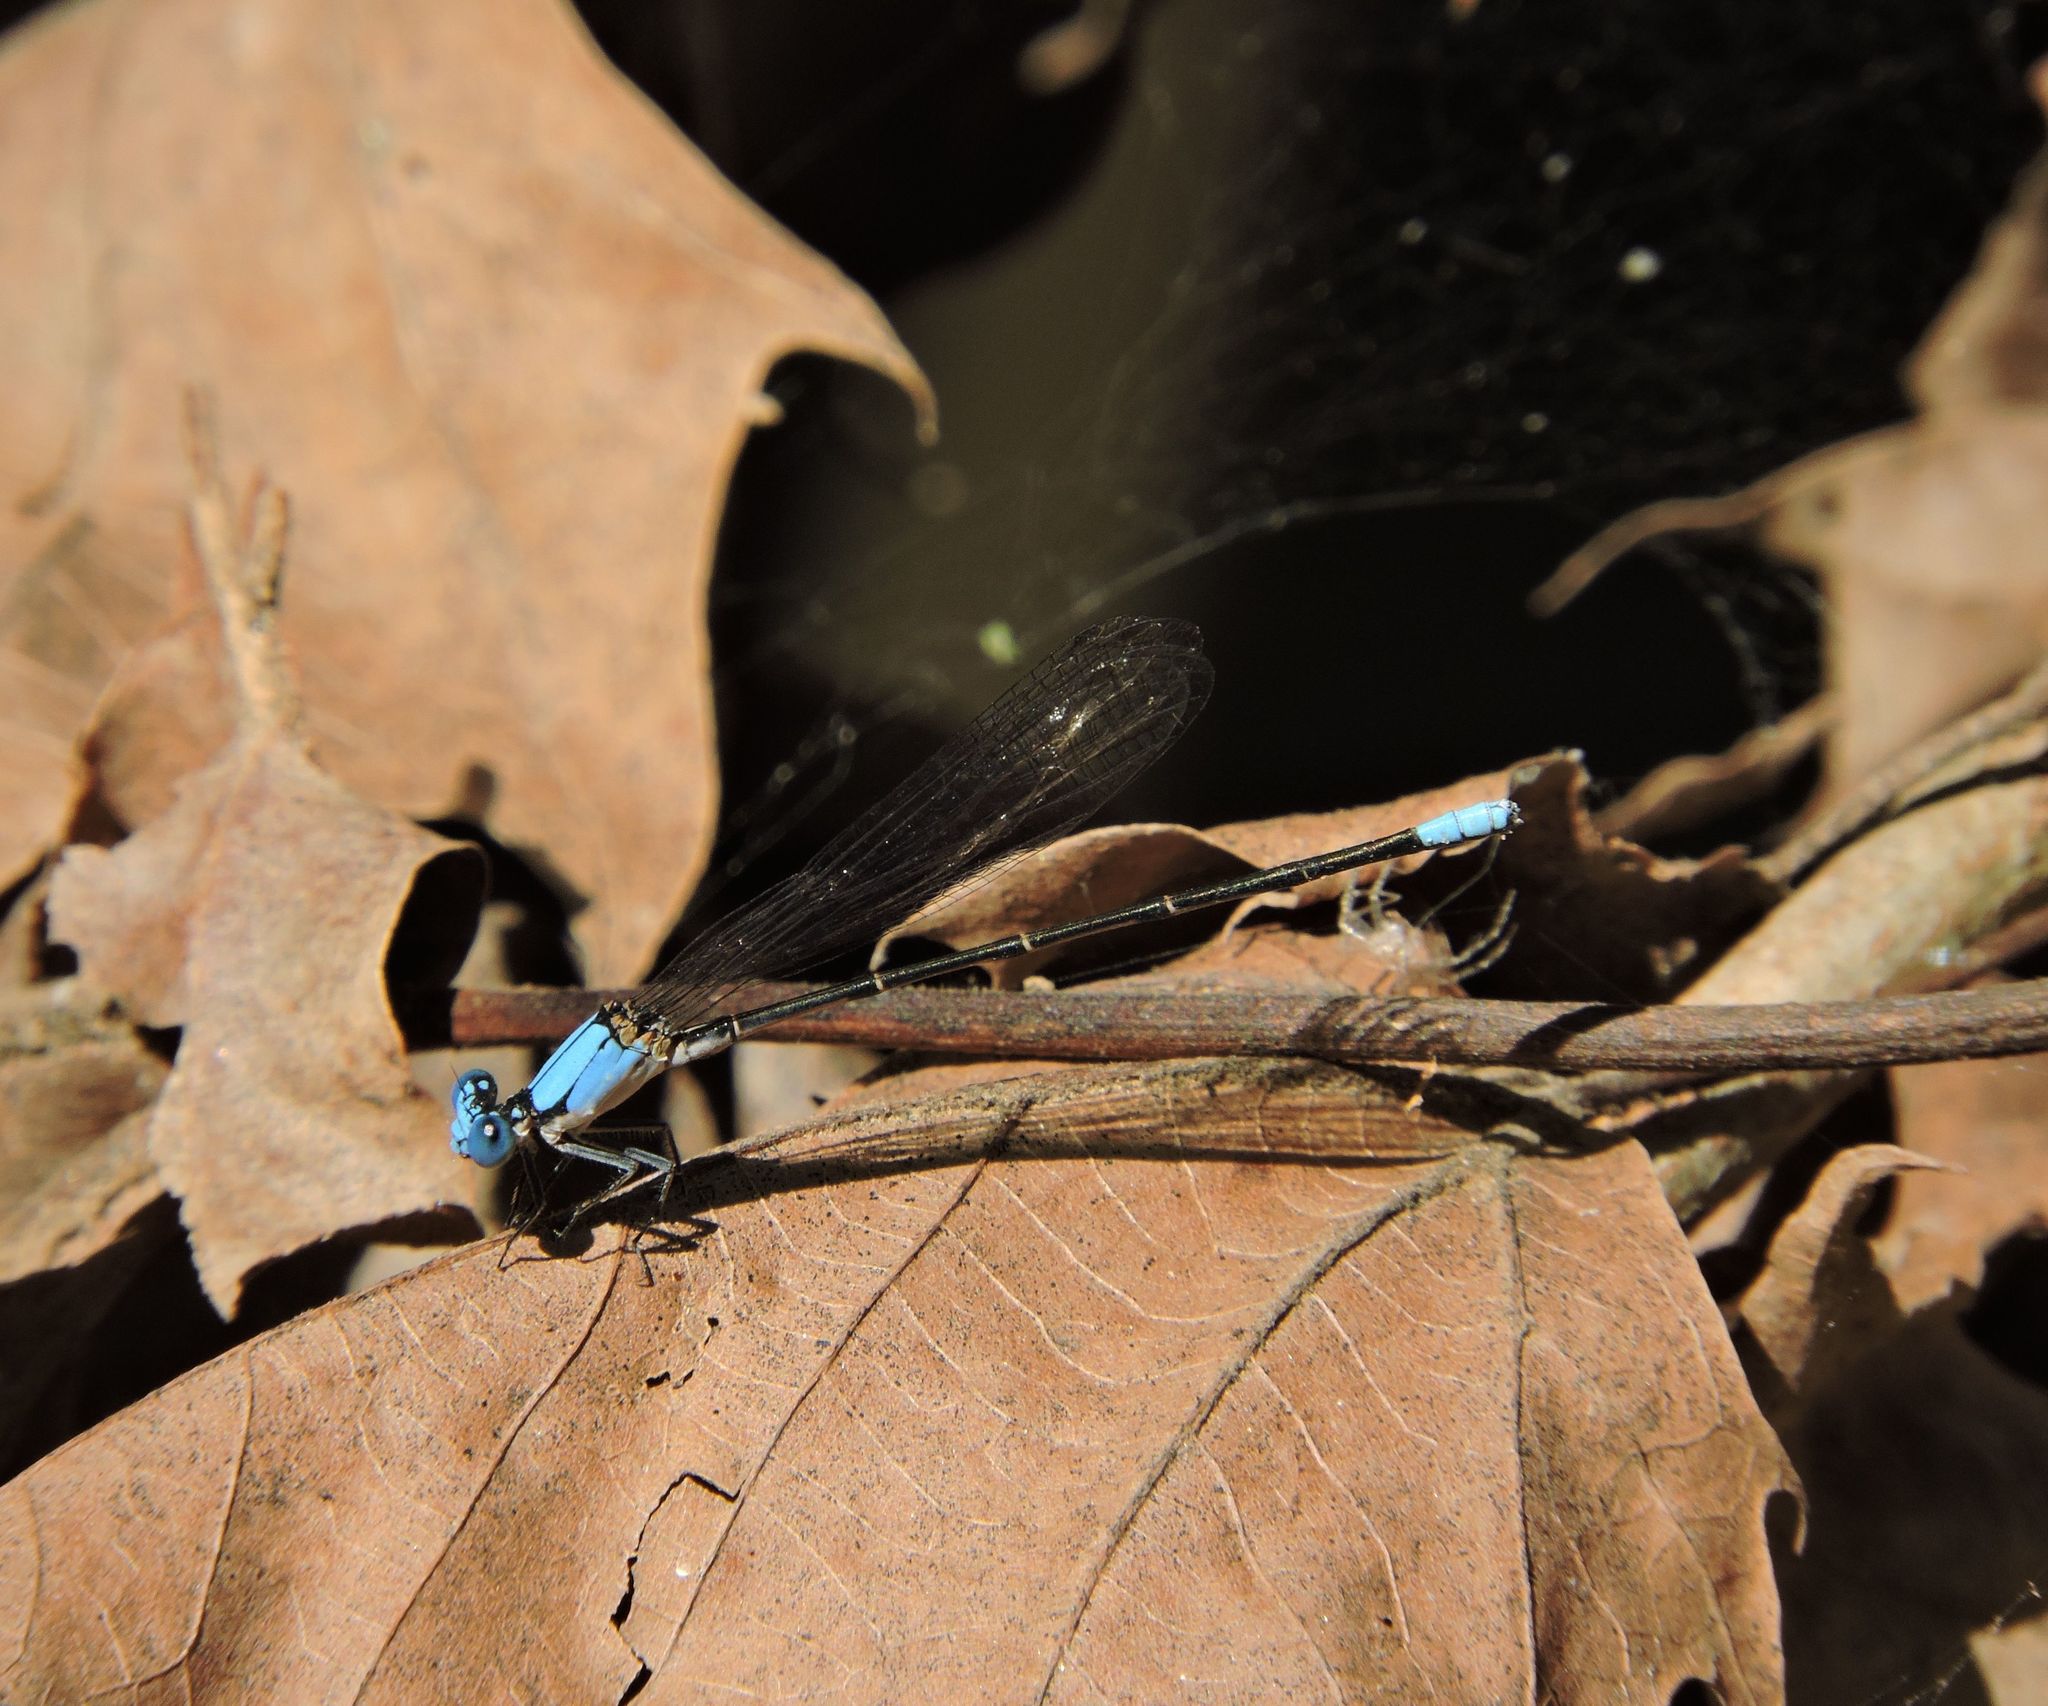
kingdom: Animalia
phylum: Arthropoda
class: Insecta
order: Odonata
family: Coenagrionidae
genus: Argia
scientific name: Argia apicalis
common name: Blue-fronted dancer
